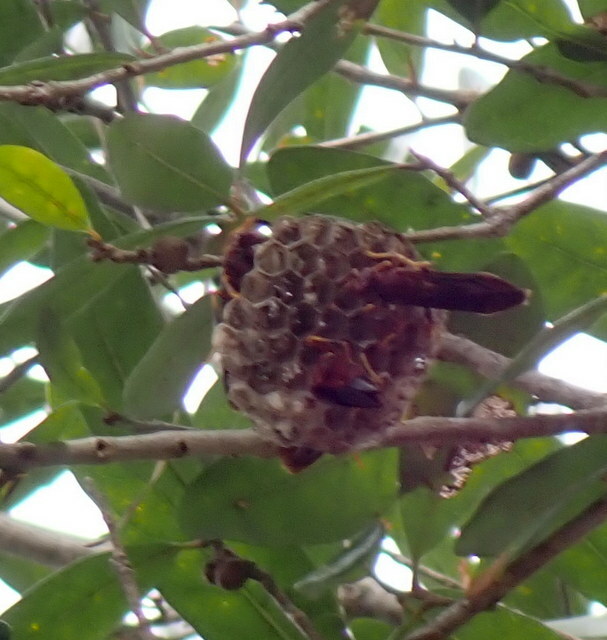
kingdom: Animalia
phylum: Arthropoda
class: Insecta
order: Hymenoptera
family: Eumenidae
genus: Polistes
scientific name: Polistes annularis
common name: Ringed paper wasp
